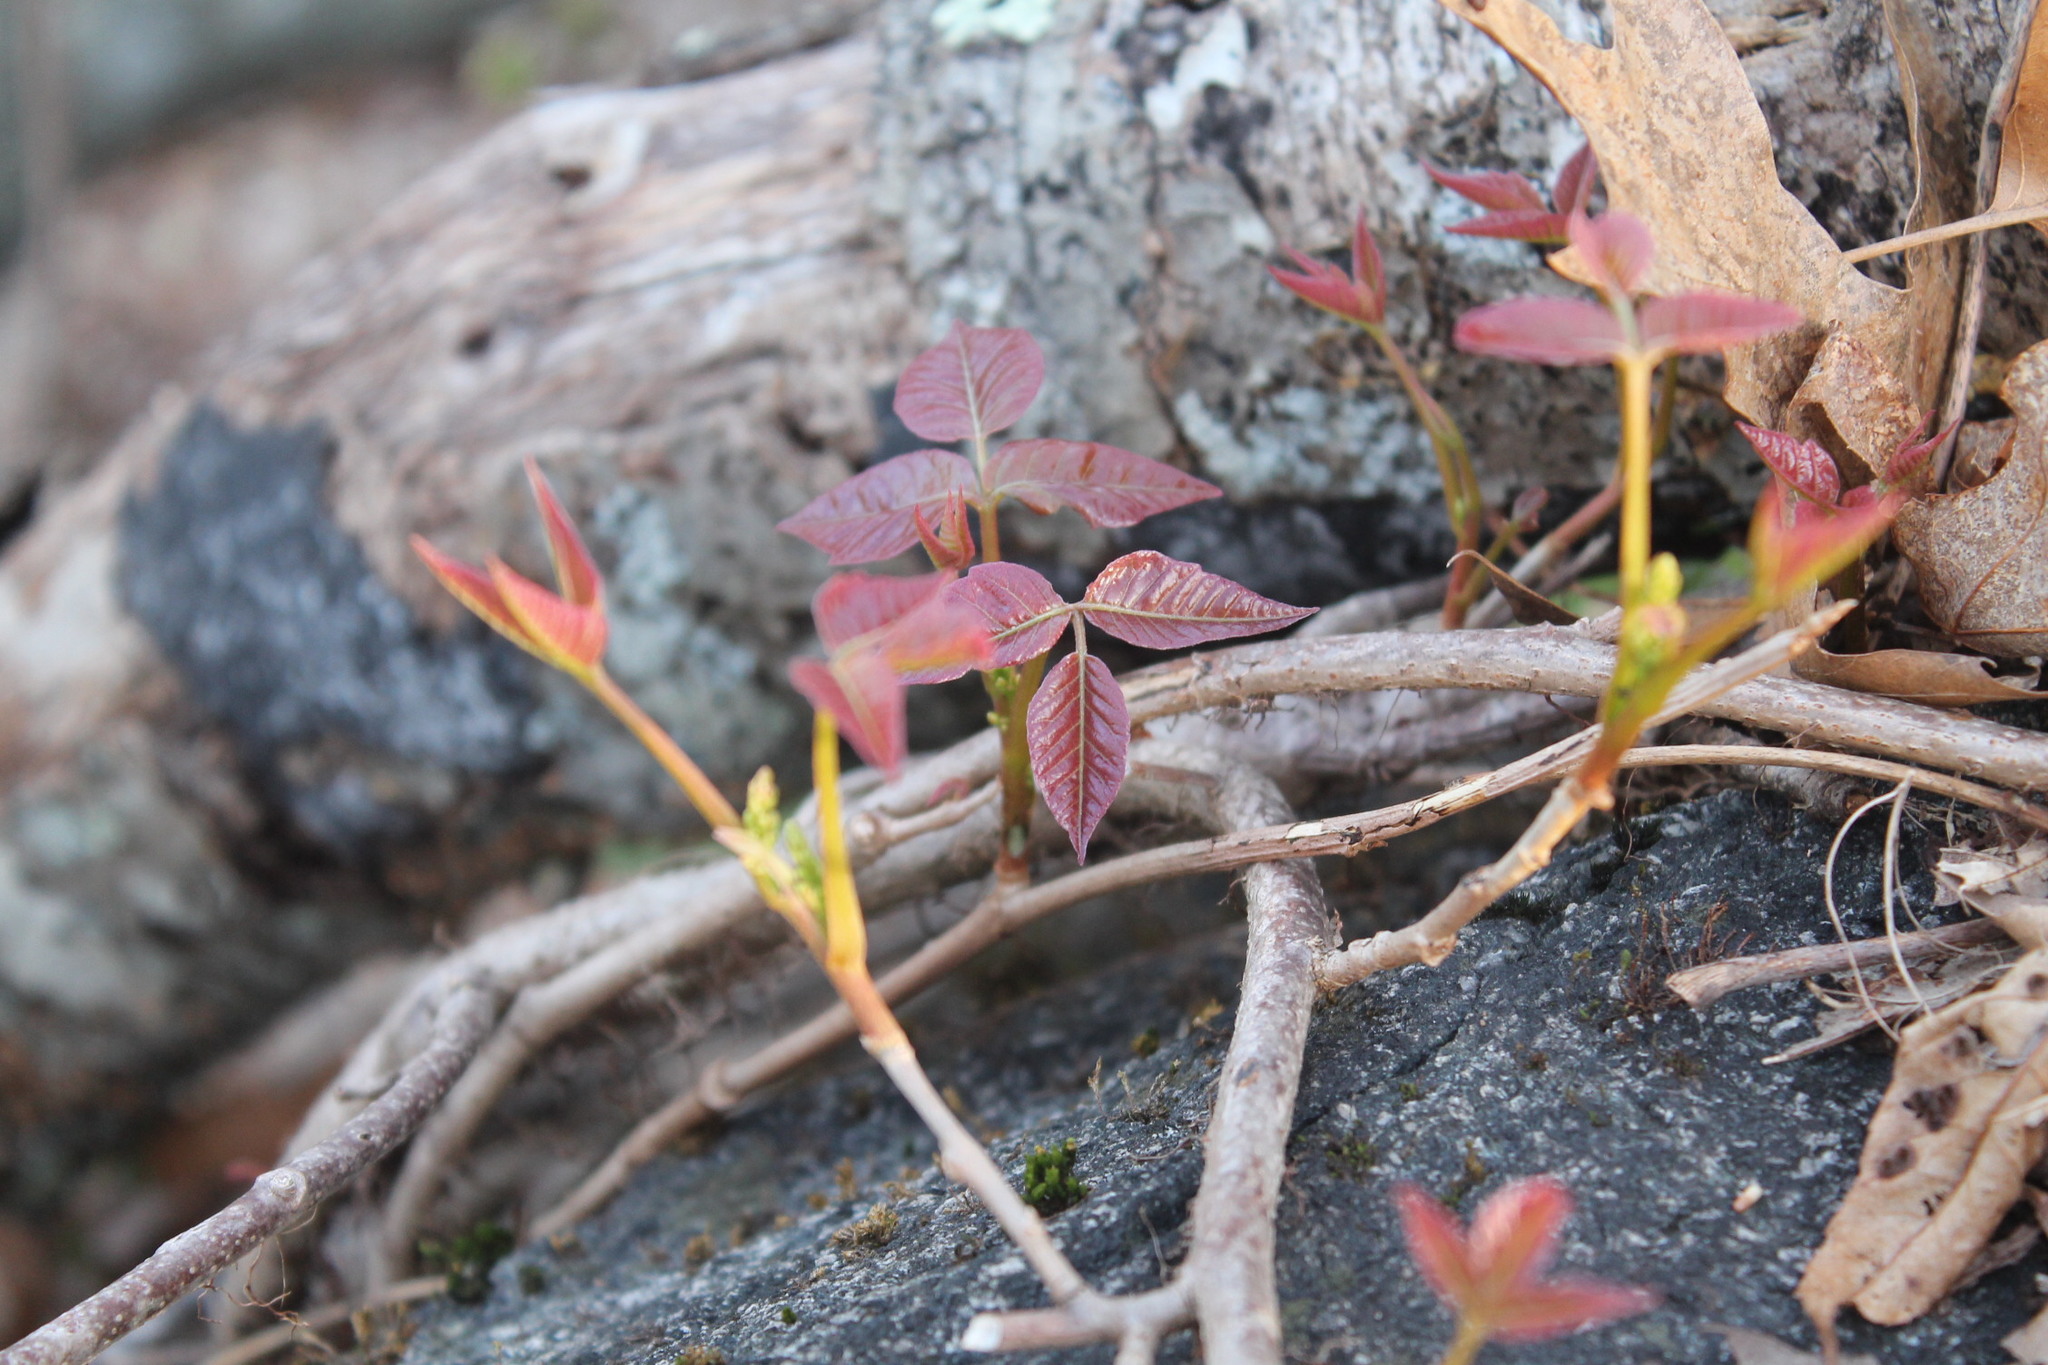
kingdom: Plantae
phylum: Tracheophyta
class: Magnoliopsida
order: Sapindales
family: Anacardiaceae
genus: Toxicodendron
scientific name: Toxicodendron radicans
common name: Poison ivy
